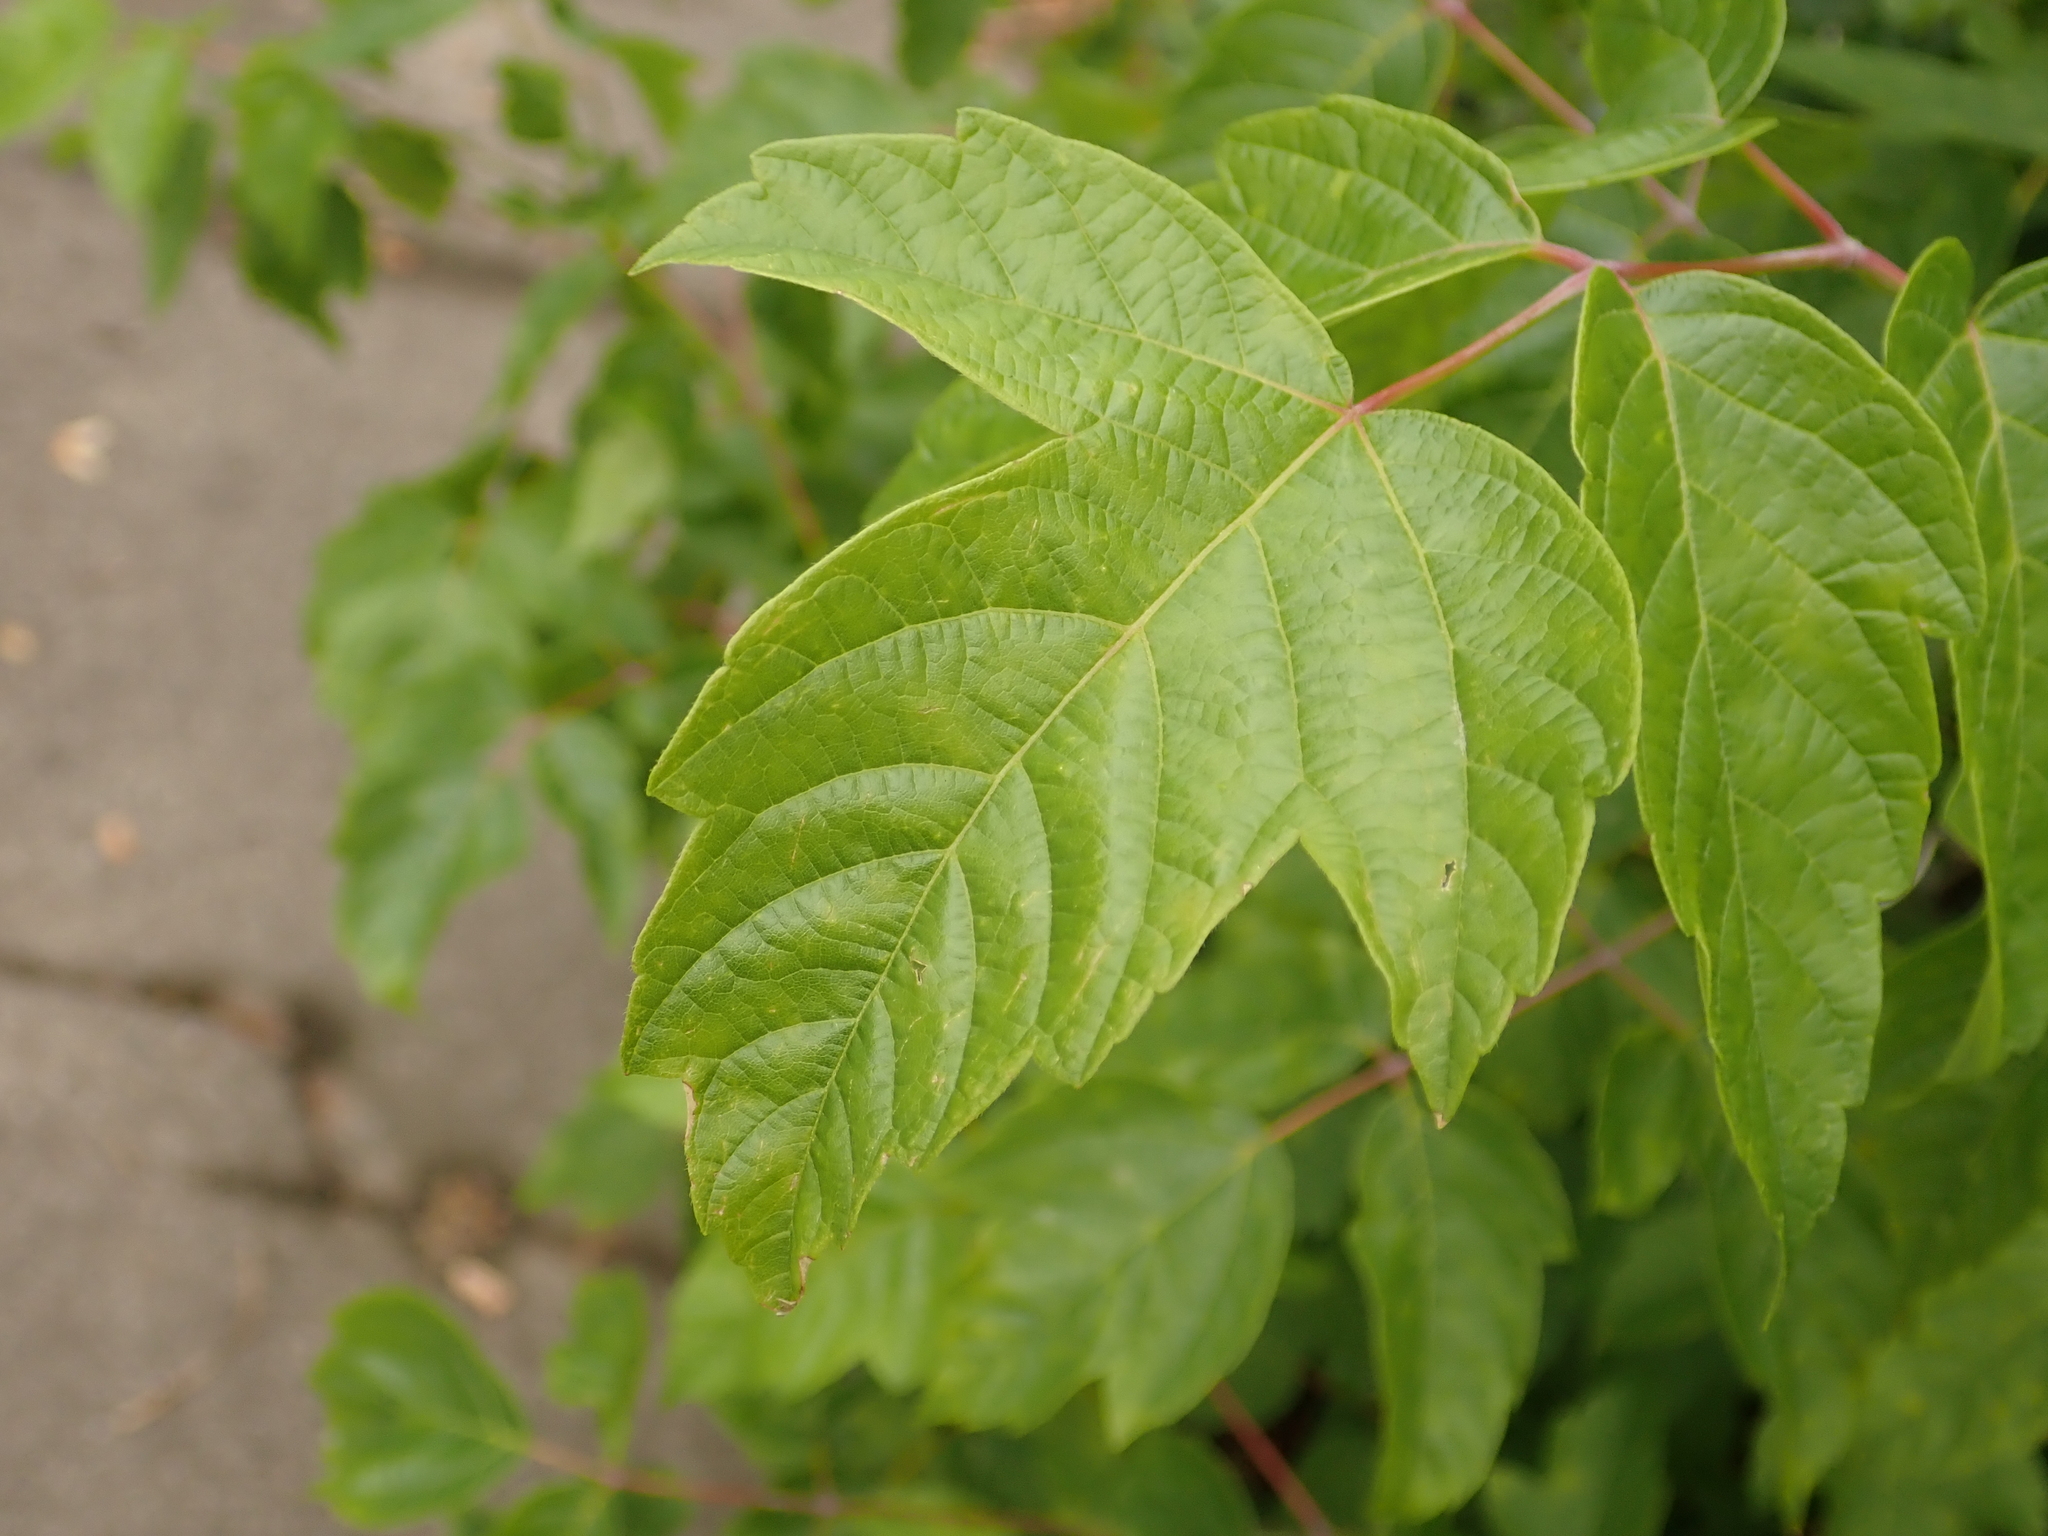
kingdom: Plantae
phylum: Tracheophyta
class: Magnoliopsida
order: Sapindales
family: Sapindaceae
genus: Acer
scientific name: Acer negundo
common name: Ashleaf maple
